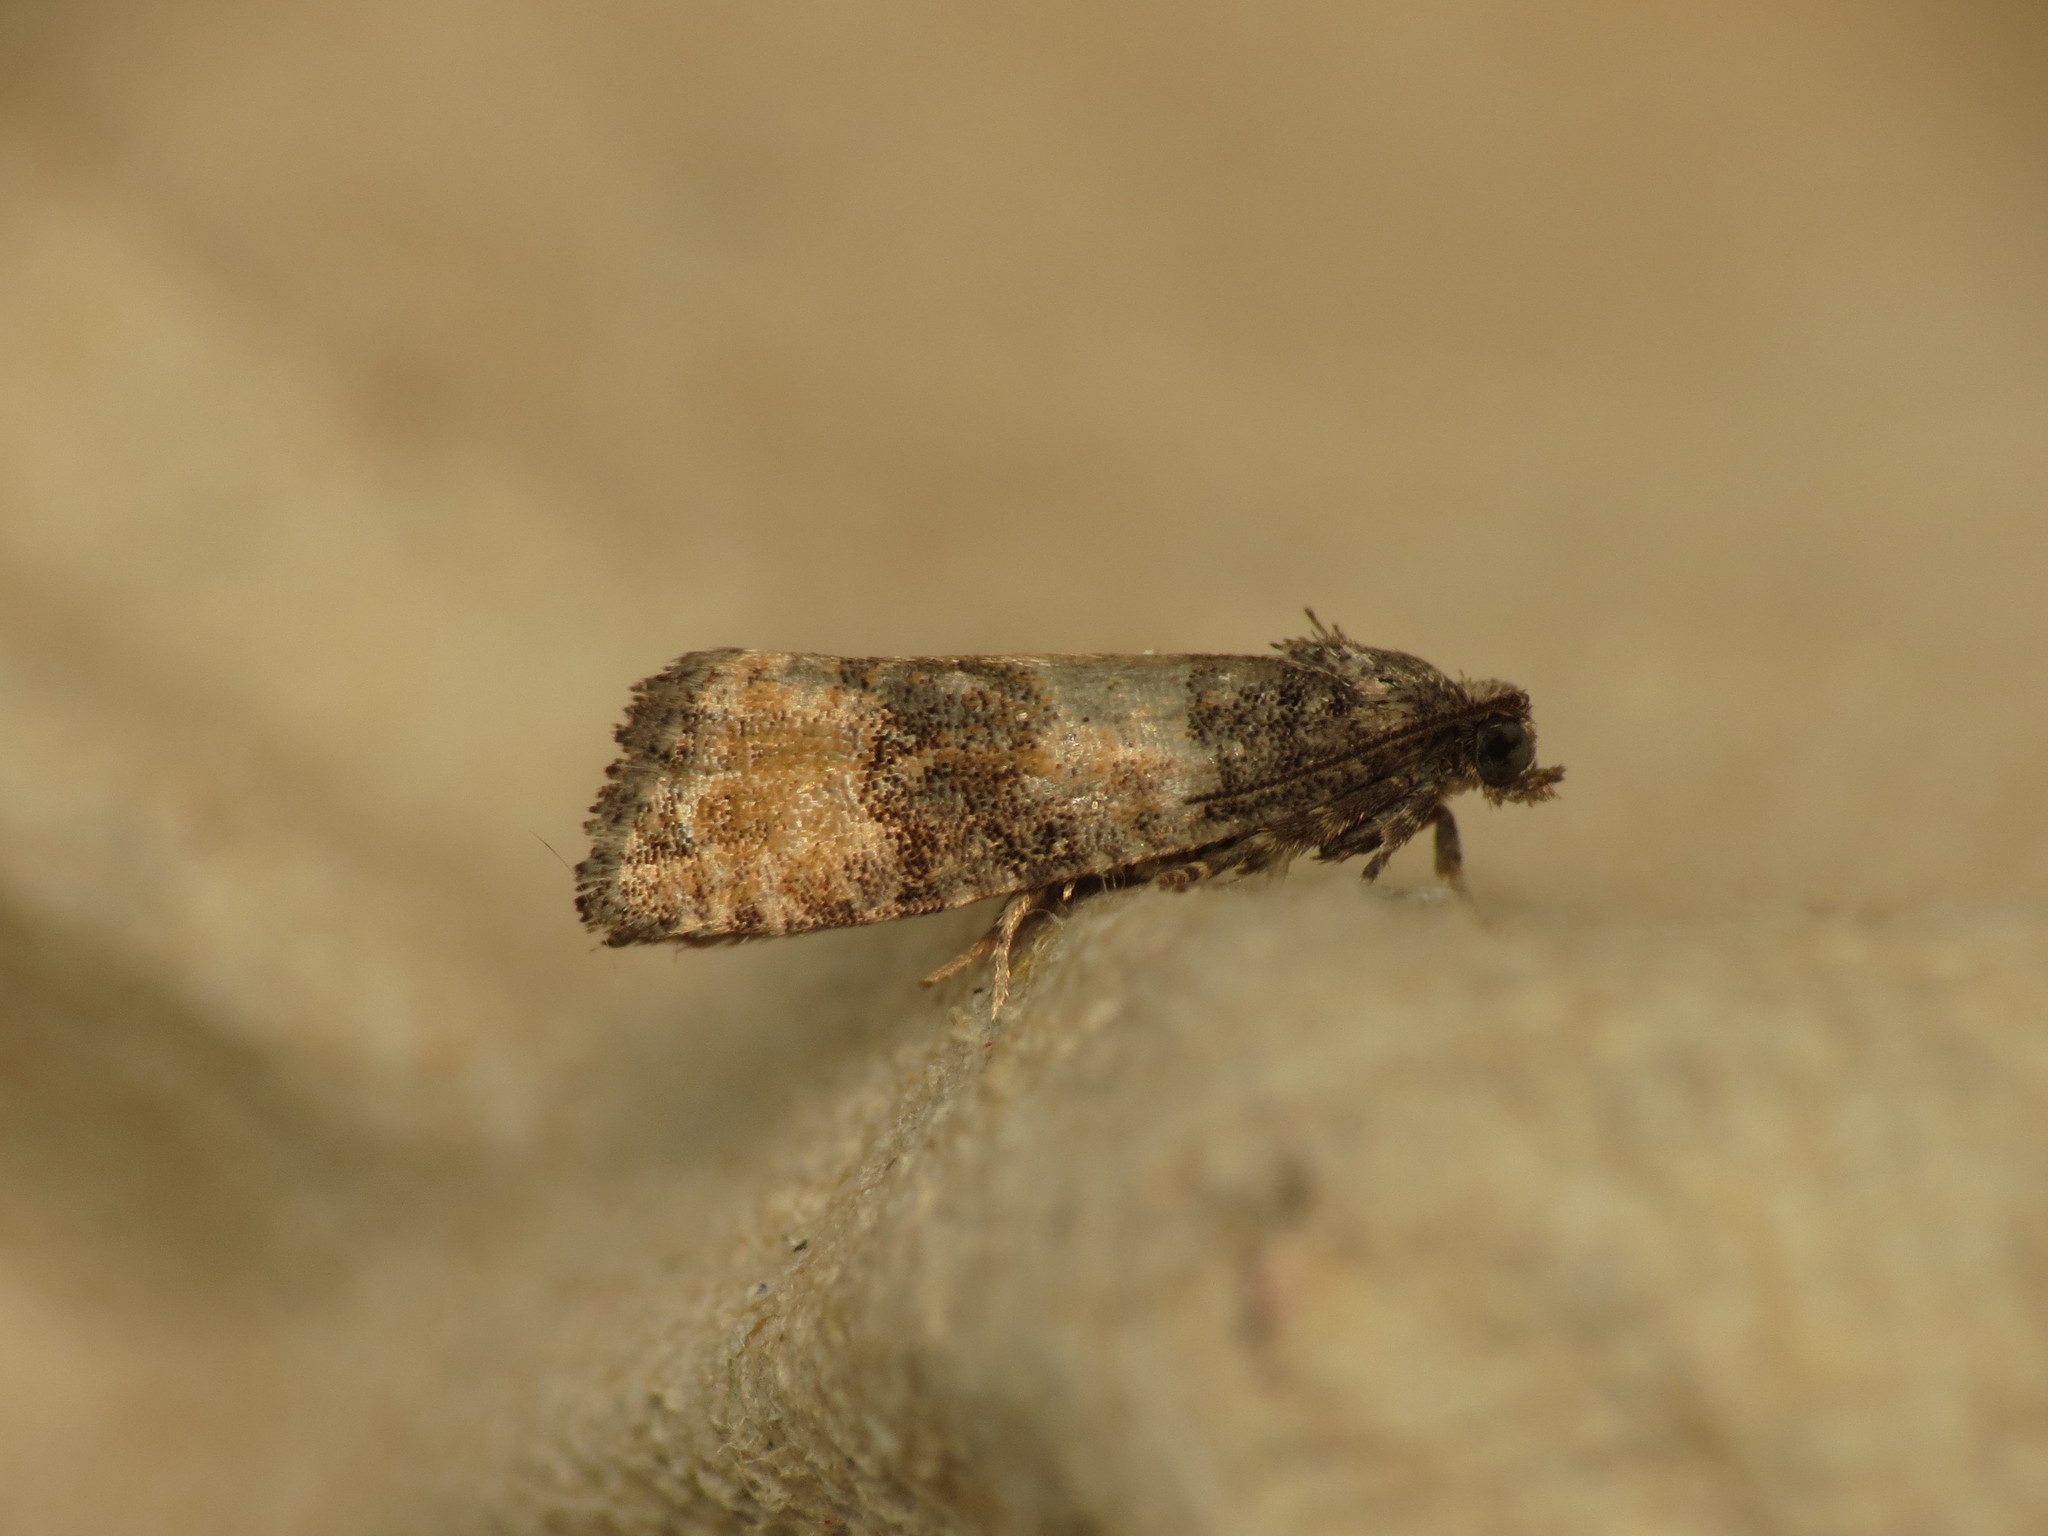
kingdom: Animalia
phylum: Arthropoda
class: Insecta
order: Lepidoptera
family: Tortricidae
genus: Piniphila
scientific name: Piniphila bifasciana
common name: Pine marble
